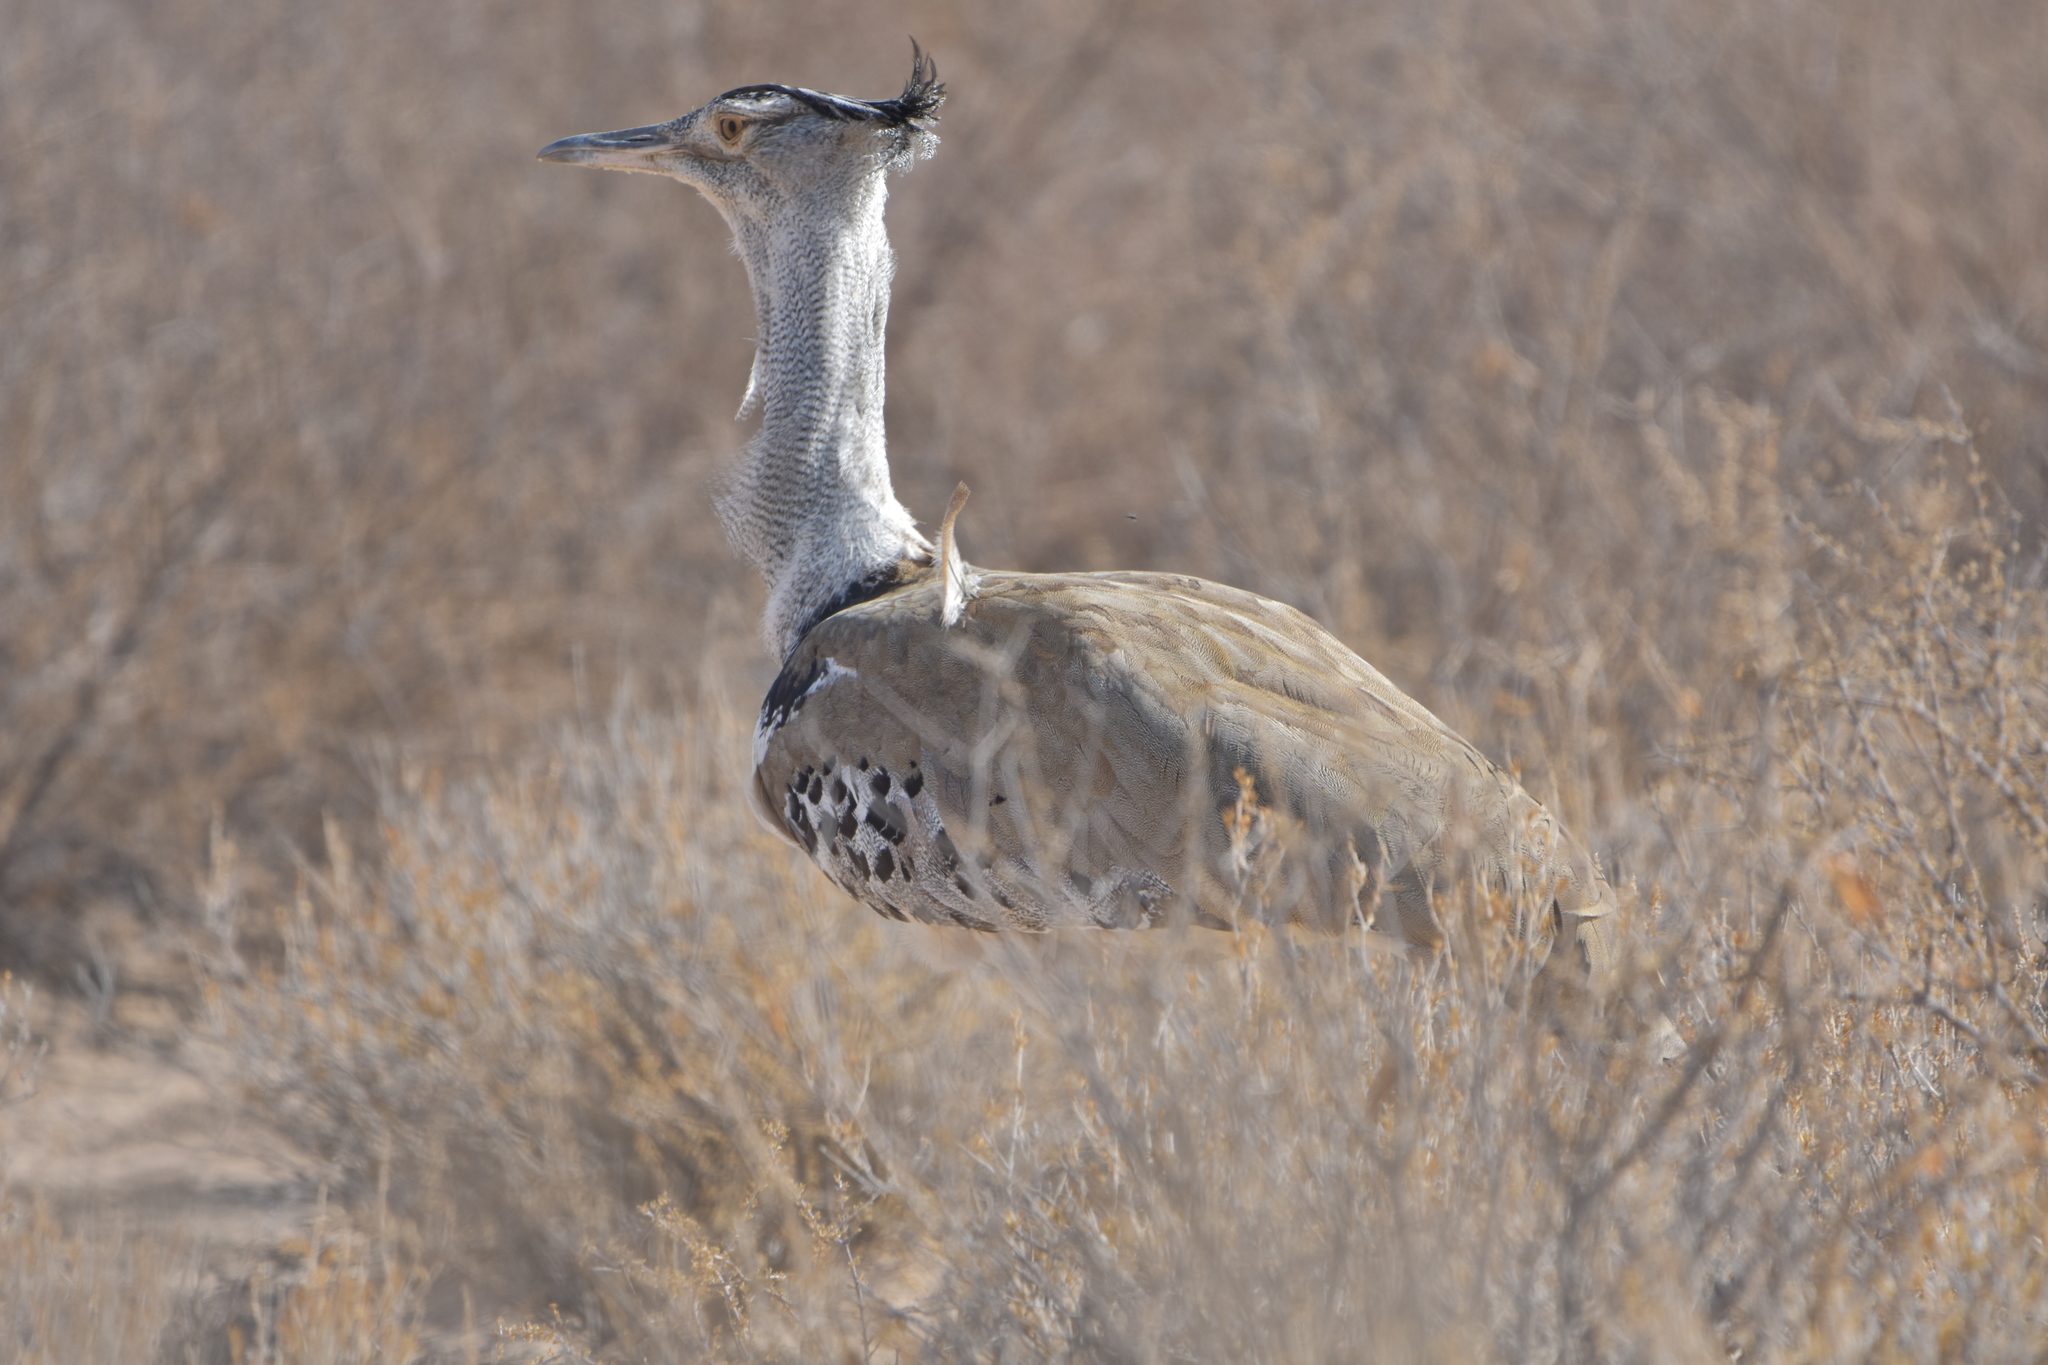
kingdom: Animalia
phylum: Chordata
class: Aves
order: Otidiformes
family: Otididae
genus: Ardeotis
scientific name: Ardeotis kori
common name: Kori bustard
